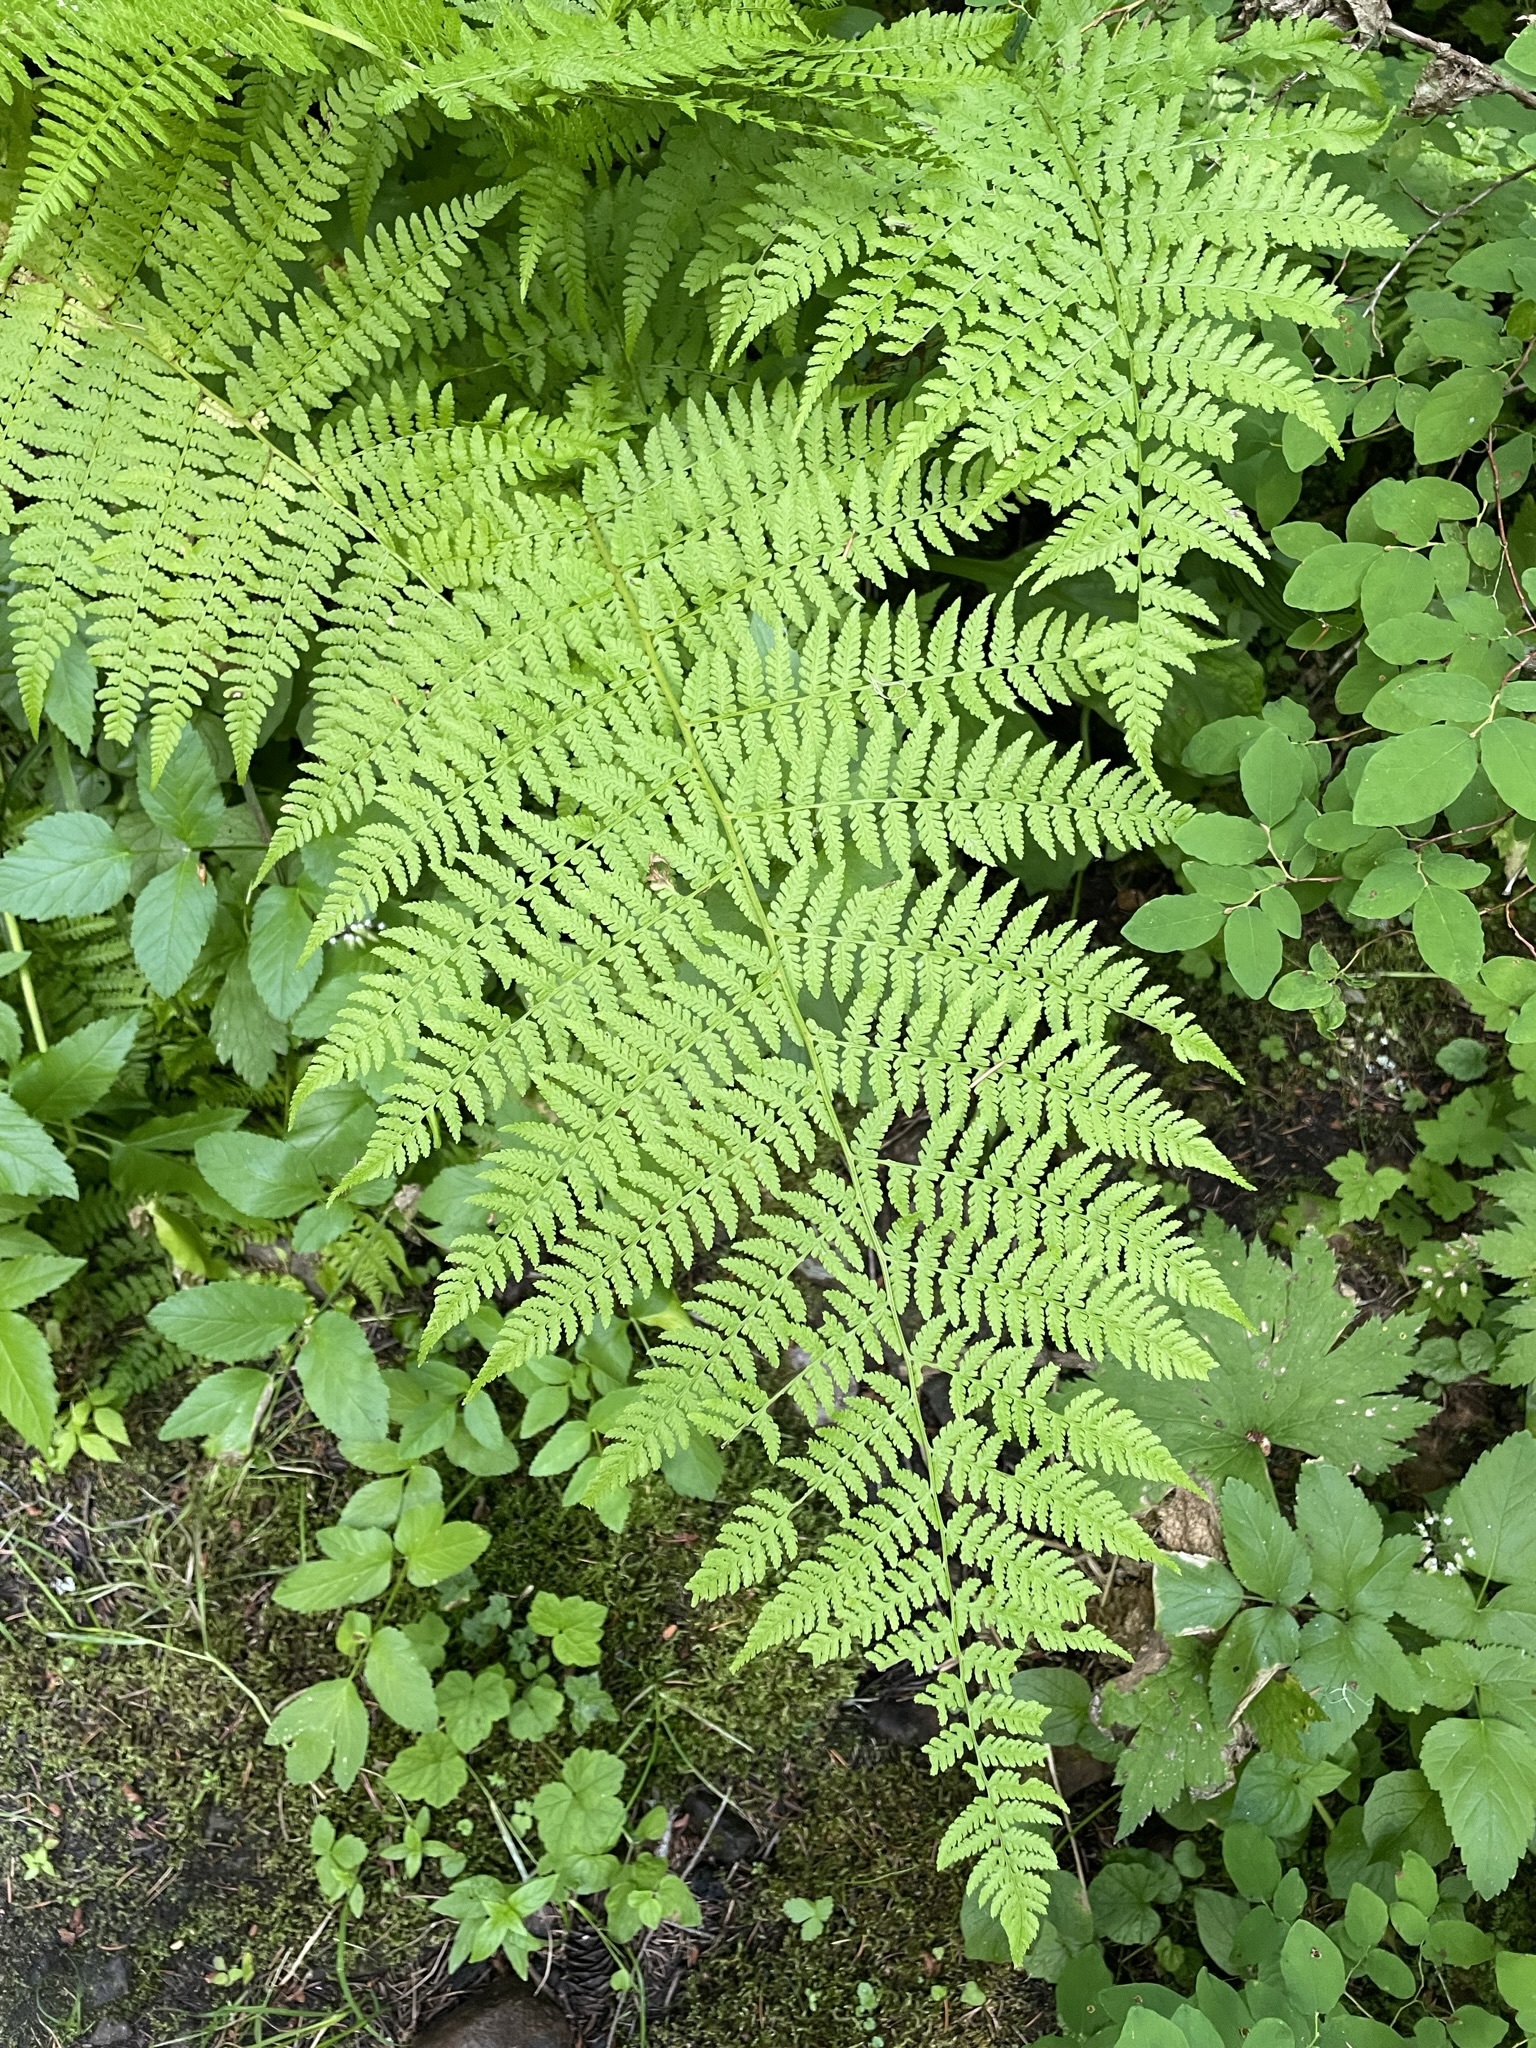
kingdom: Plantae
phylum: Tracheophyta
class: Polypodiopsida
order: Polypodiales
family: Athyriaceae
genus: Athyrium
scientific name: Athyrium cyclosorum
